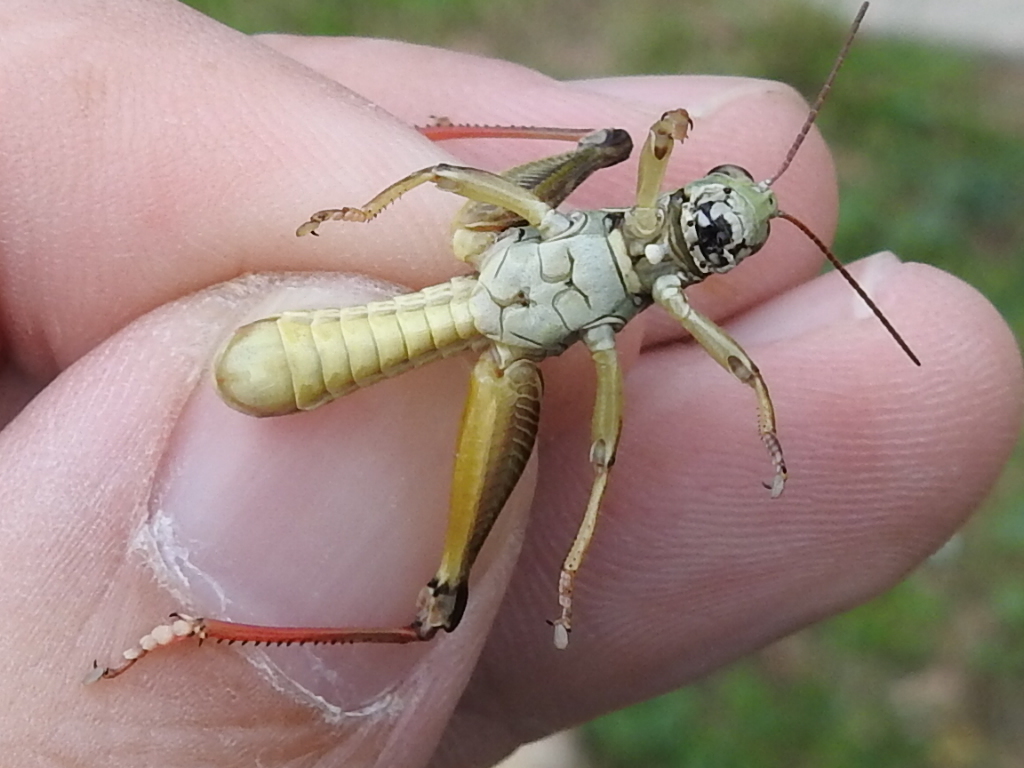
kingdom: Animalia
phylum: Arthropoda
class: Insecta
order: Orthoptera
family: Acrididae
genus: Melanoplus
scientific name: Melanoplus femurrubrum
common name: Red-legged grasshopper
